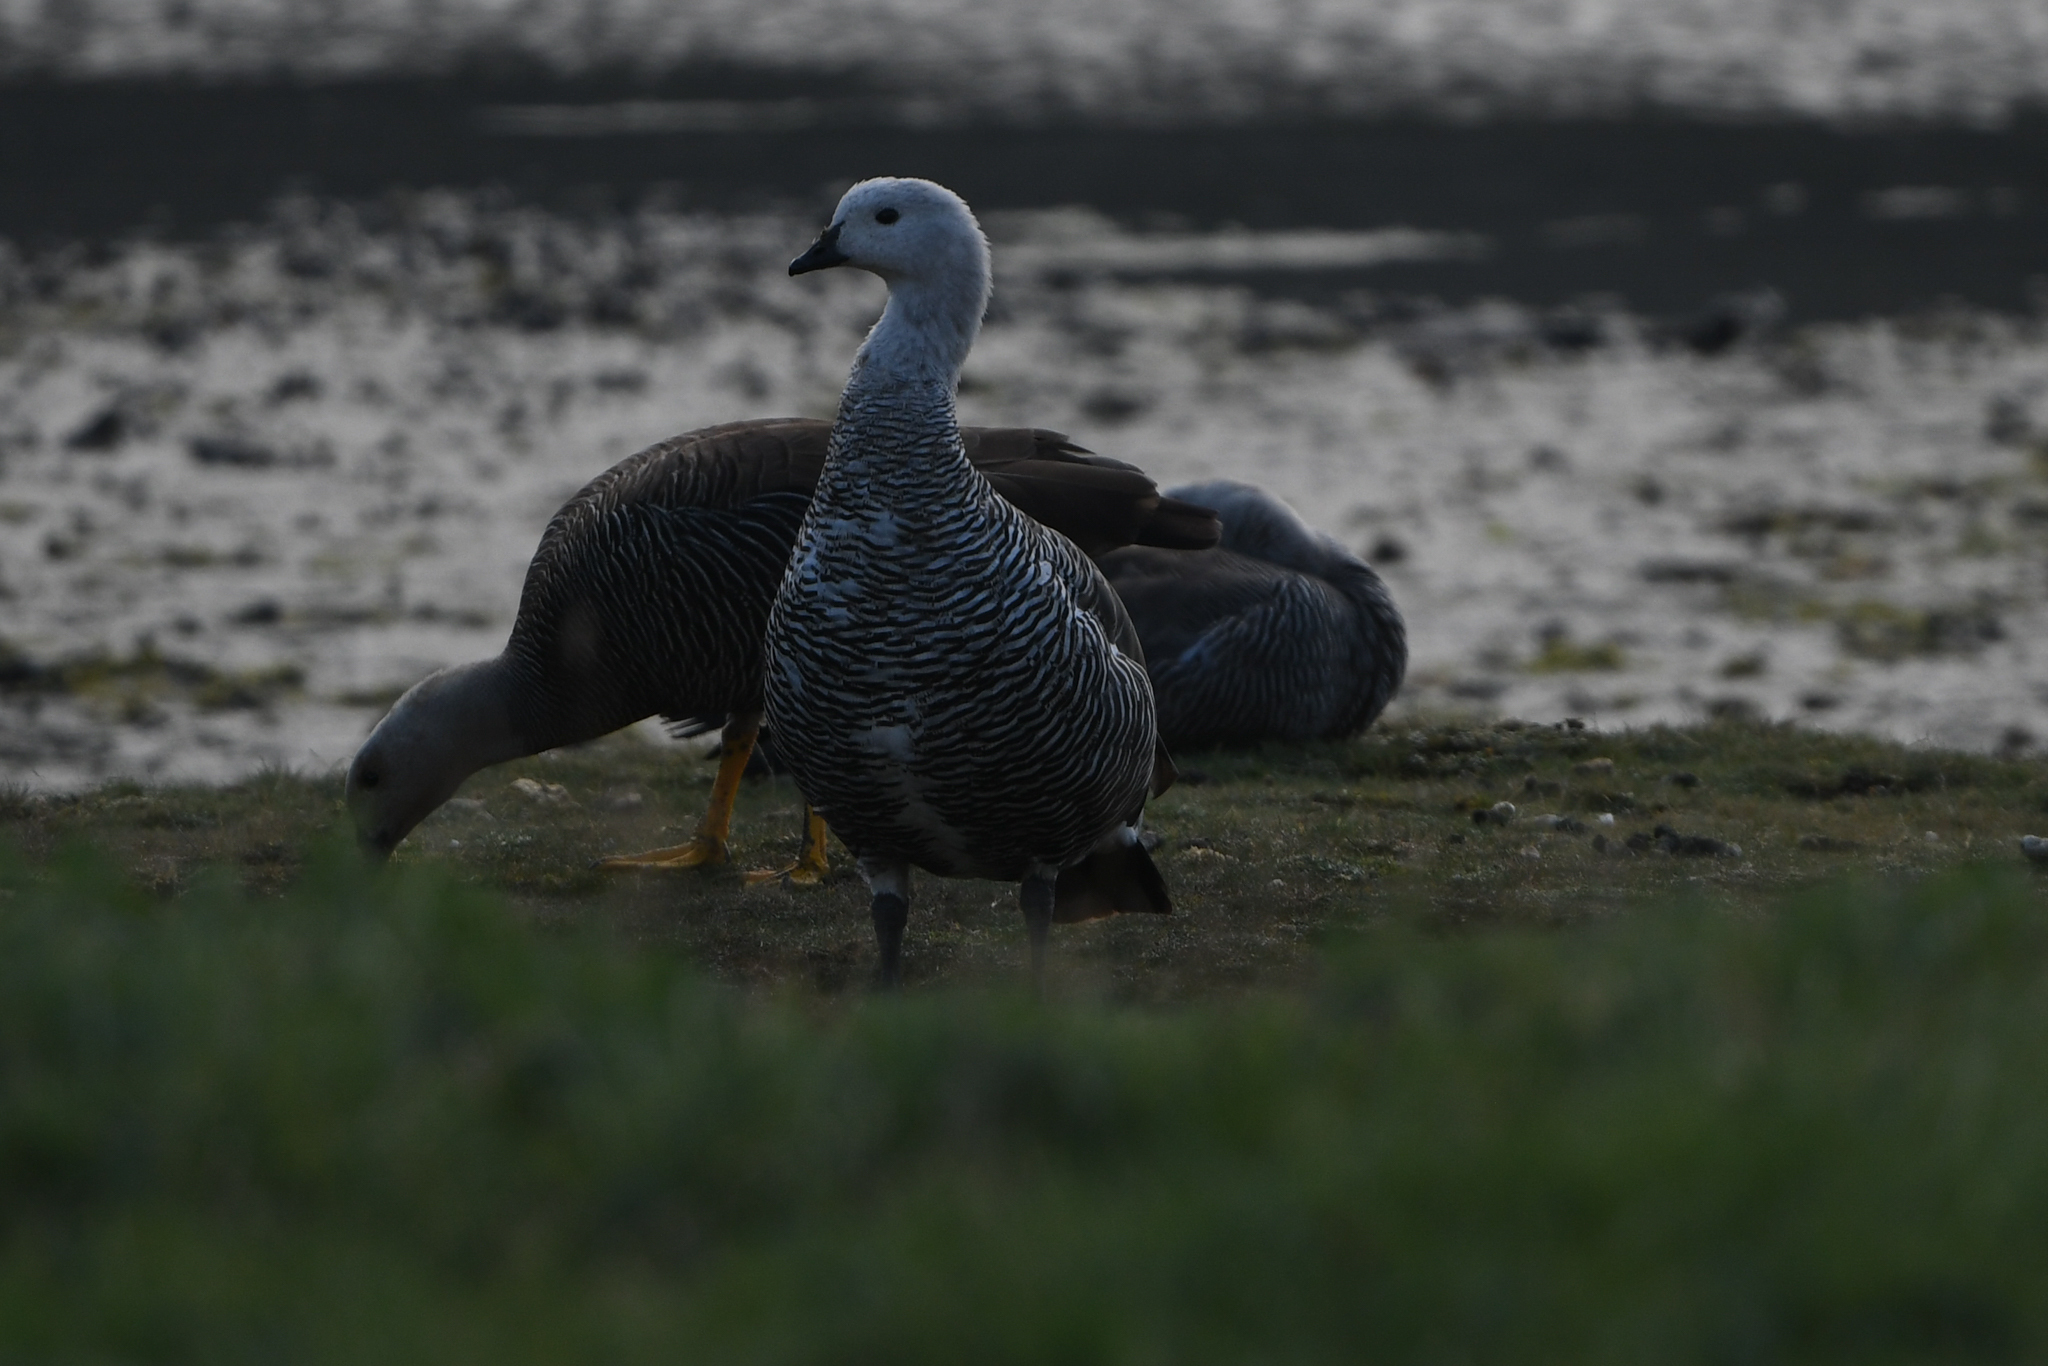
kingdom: Animalia
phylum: Chordata
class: Aves
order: Anseriformes
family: Anatidae
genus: Chloephaga
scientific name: Chloephaga picta
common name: Upland goose
